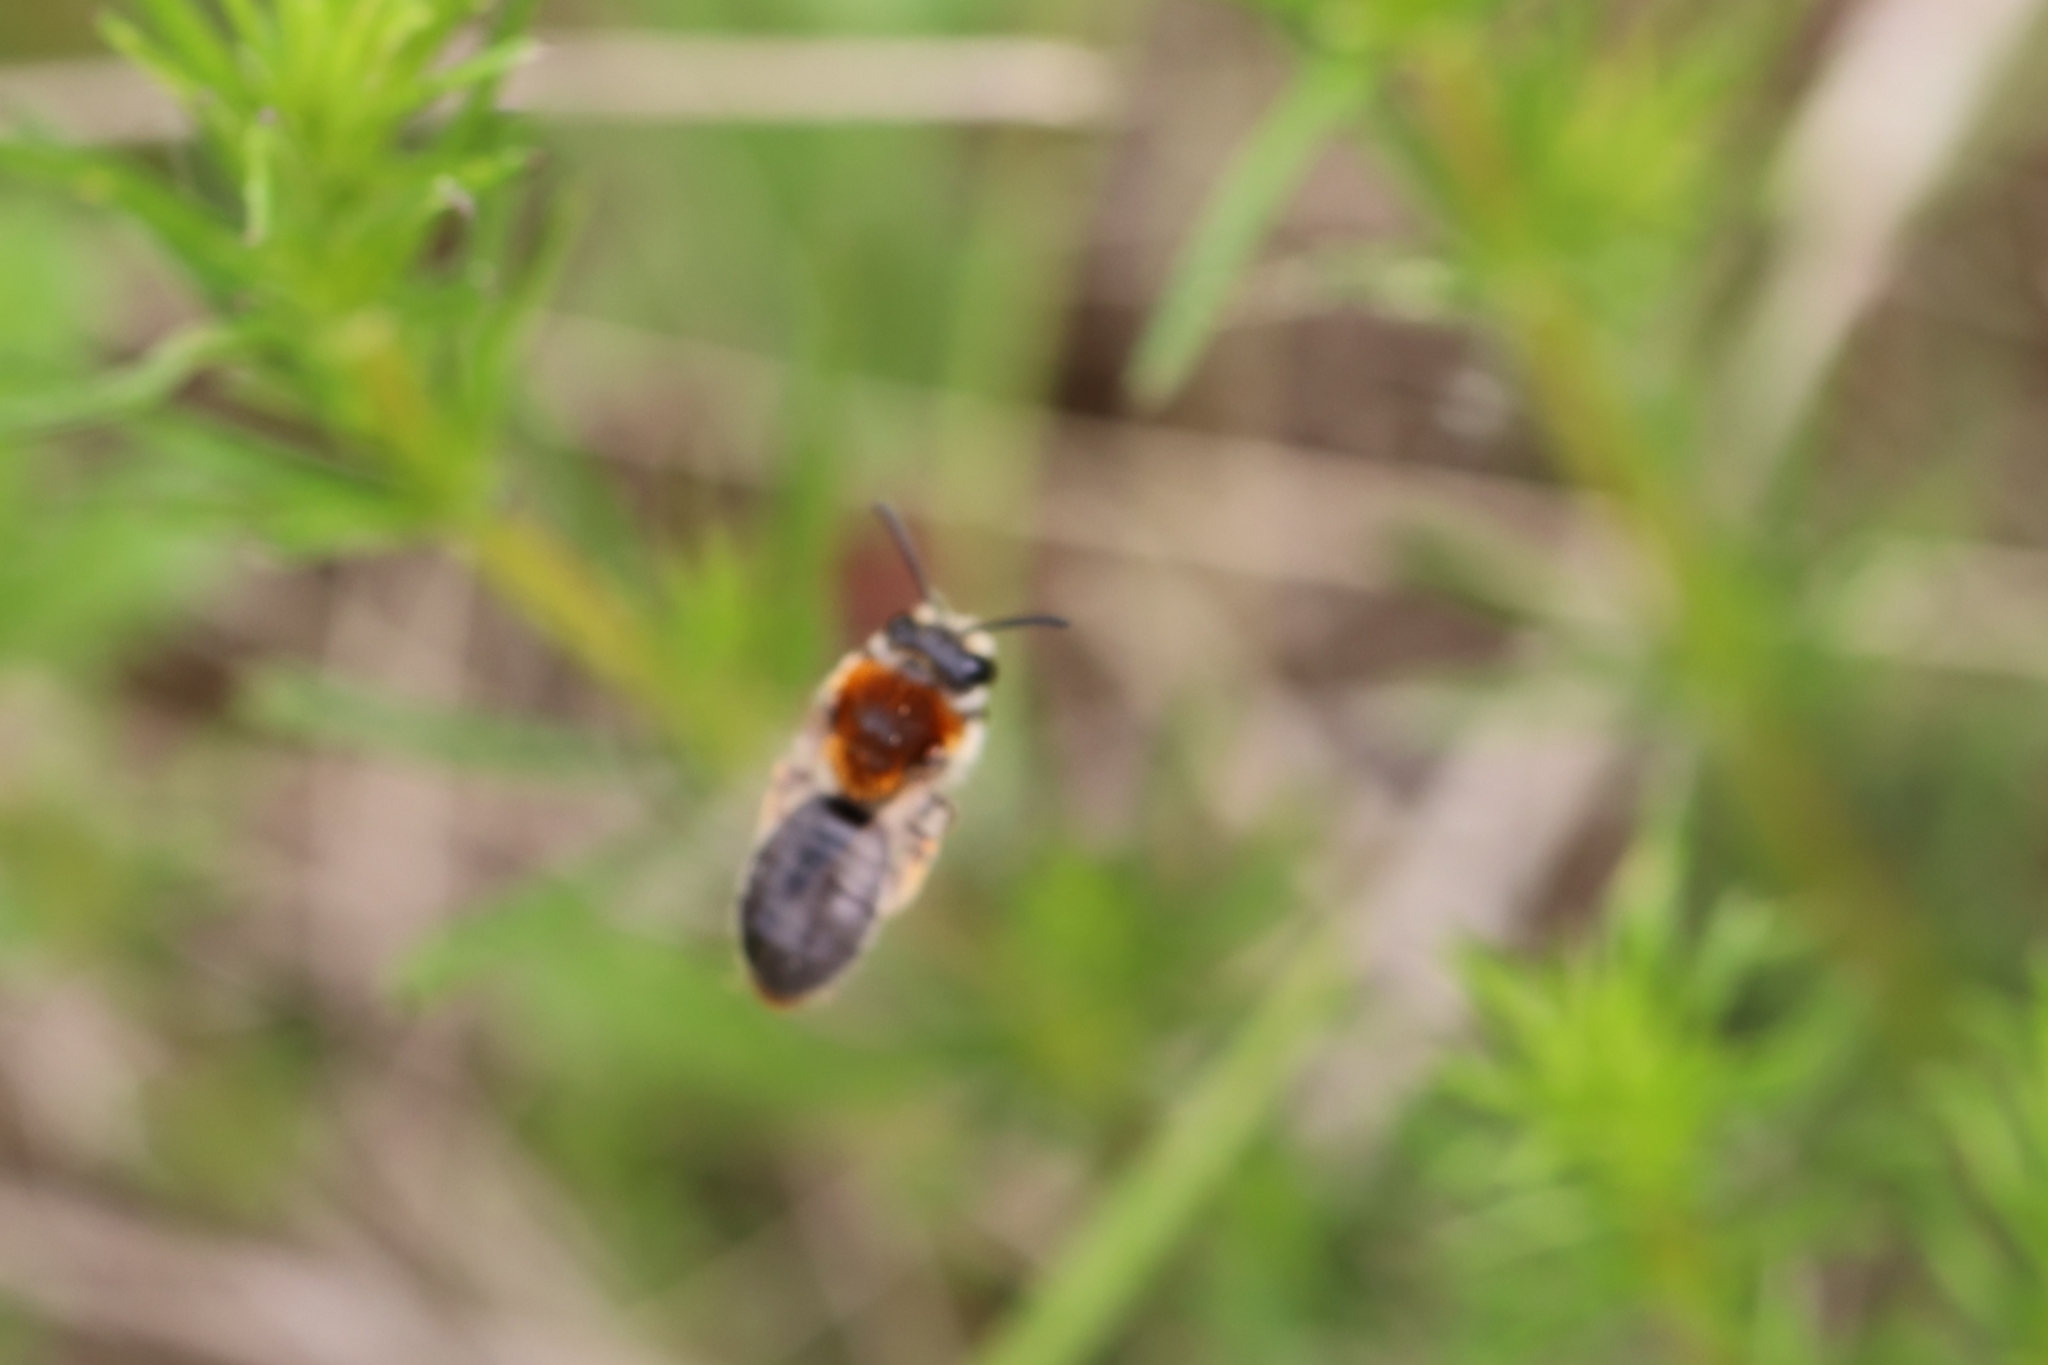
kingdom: Animalia
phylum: Arthropoda
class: Insecta
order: Hymenoptera
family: Andrenidae
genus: Andrena
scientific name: Andrena haemorrhoa
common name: Early mining bee
